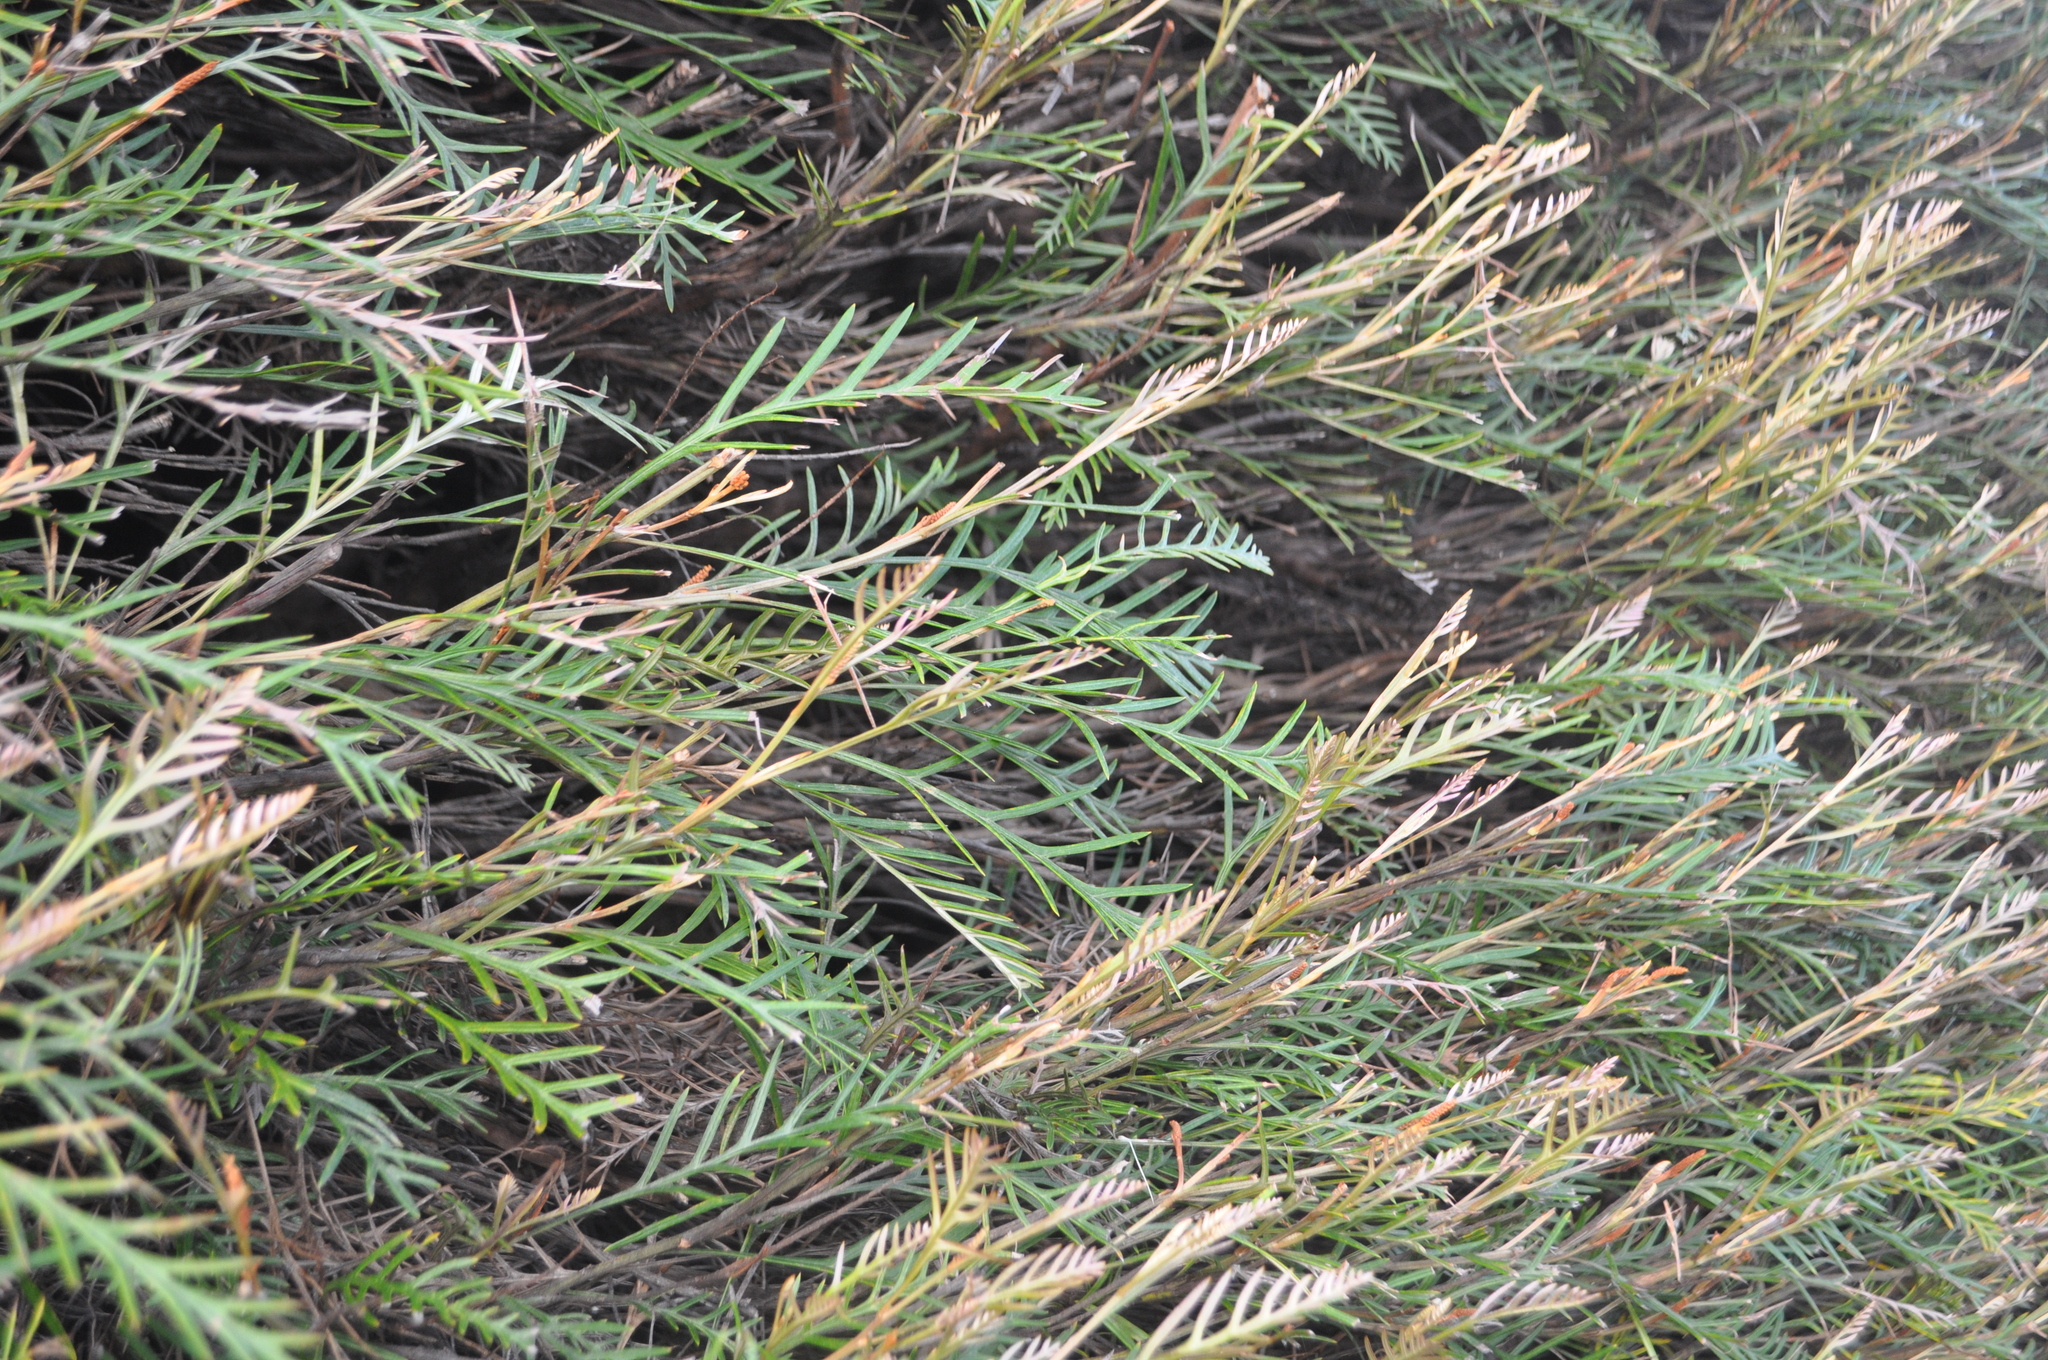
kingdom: Plantae
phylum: Tracheophyta
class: Magnoliopsida
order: Proteales
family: Proteaceae
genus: Banksia
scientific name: Banksia integrifolia
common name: White-honeysuckle
